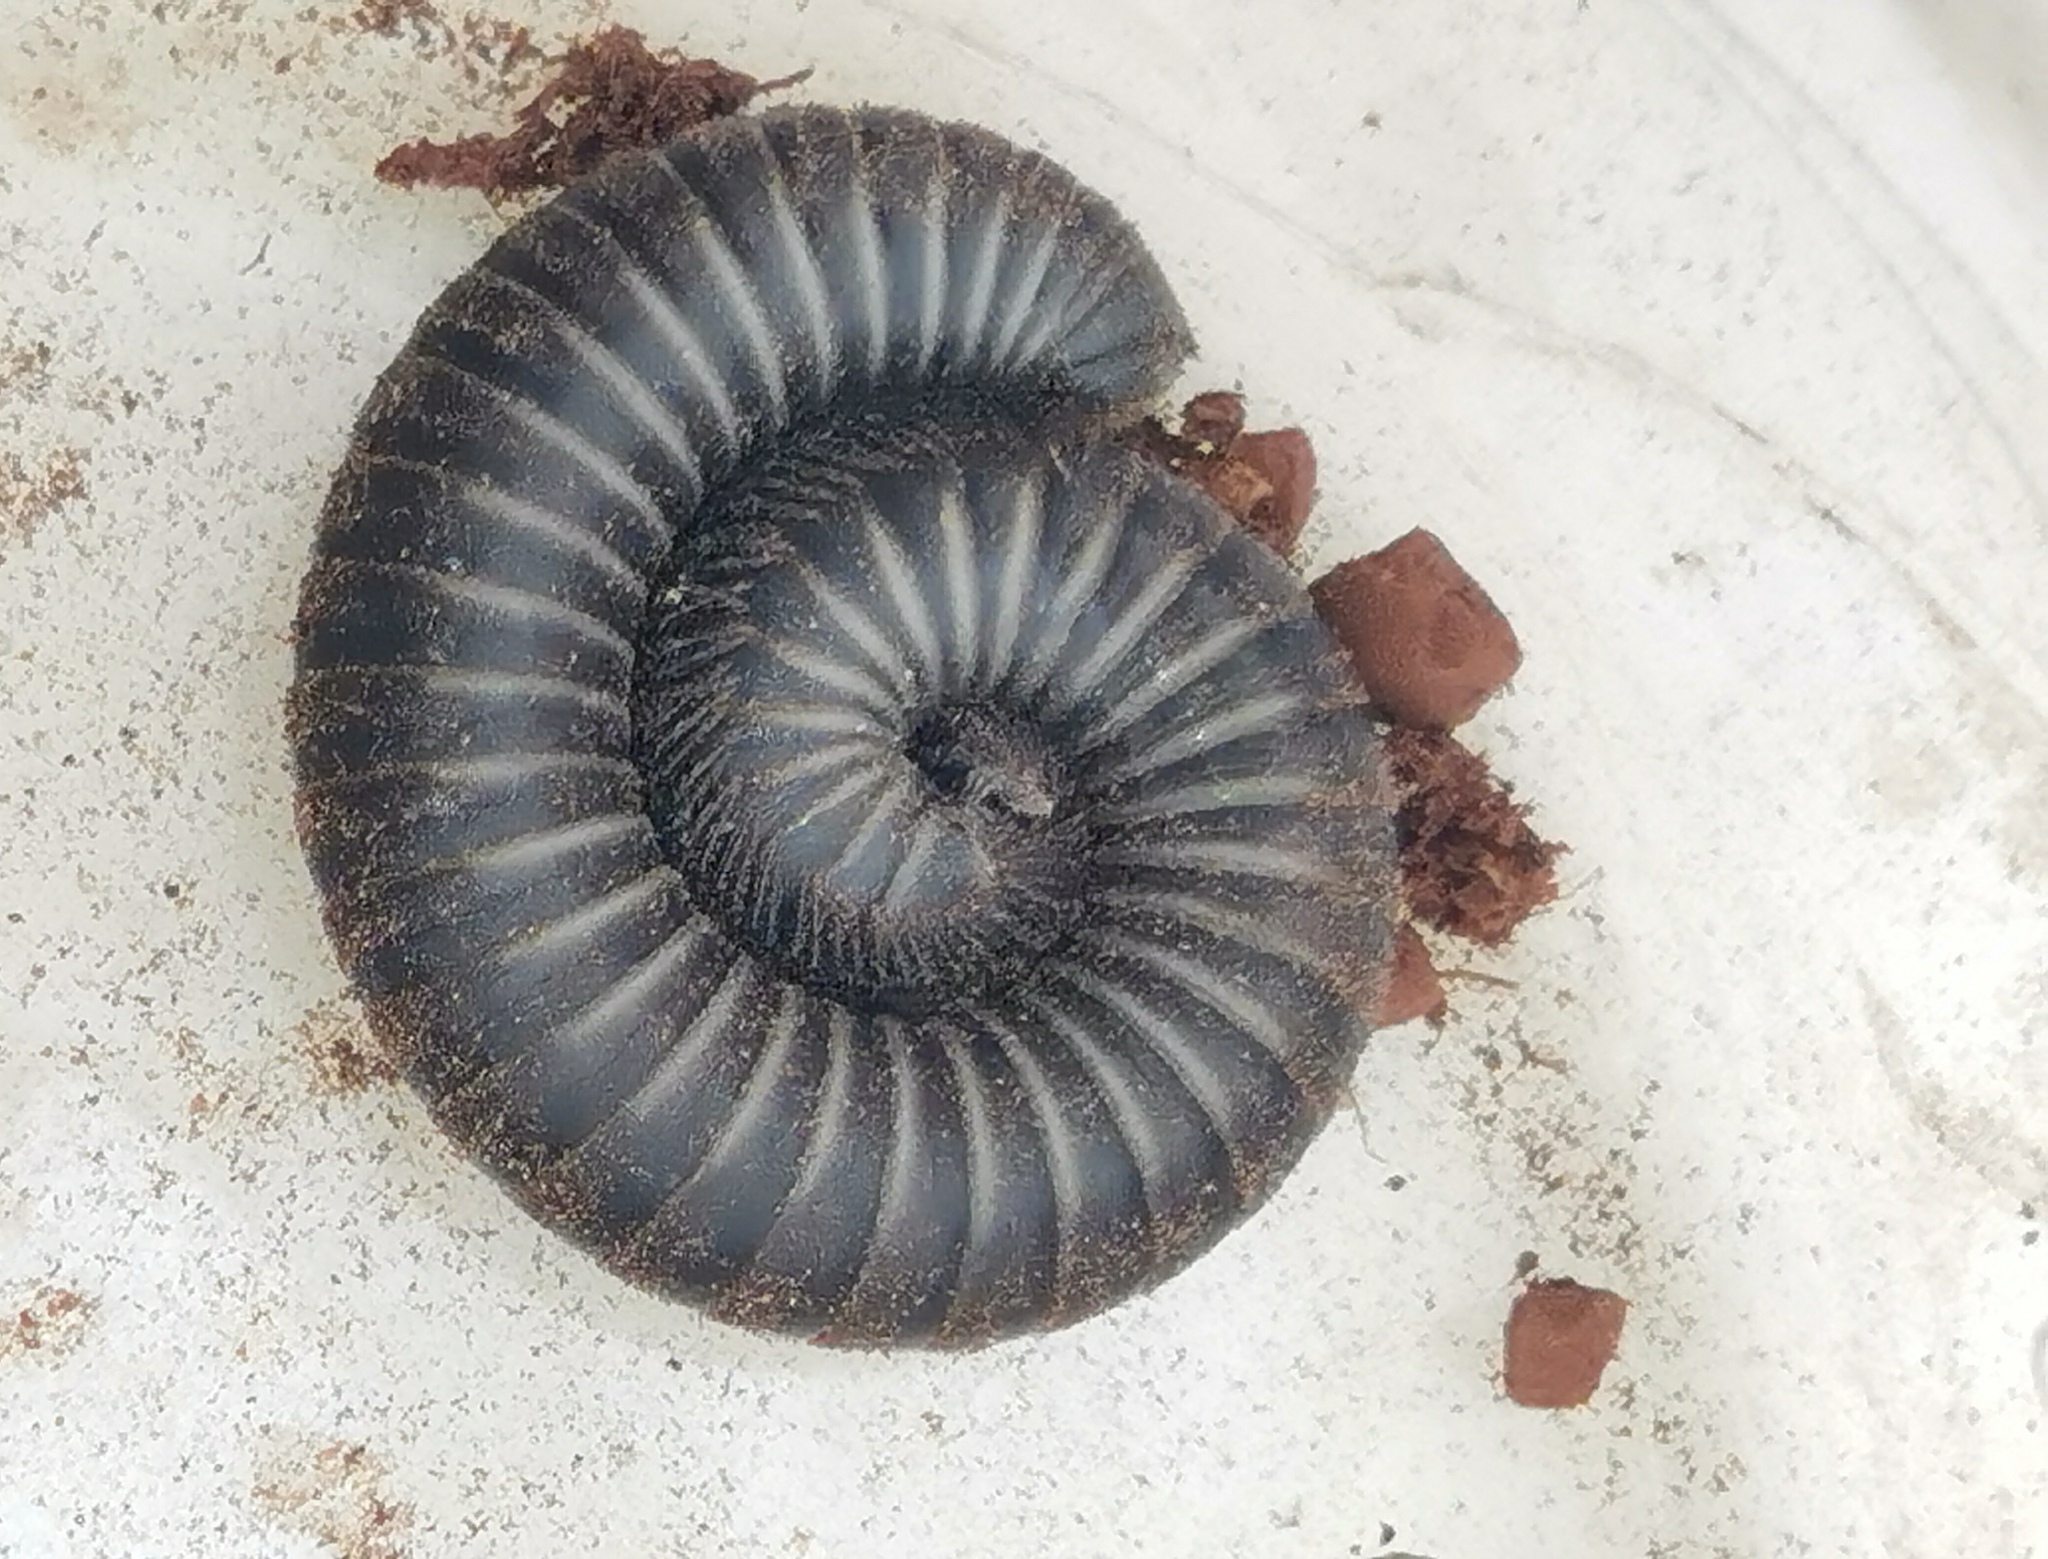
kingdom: Animalia
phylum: Arthropoda
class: Diplopoda
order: Julida
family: Julidae
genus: Ommatoiulus
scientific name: Ommatoiulus rutilans
